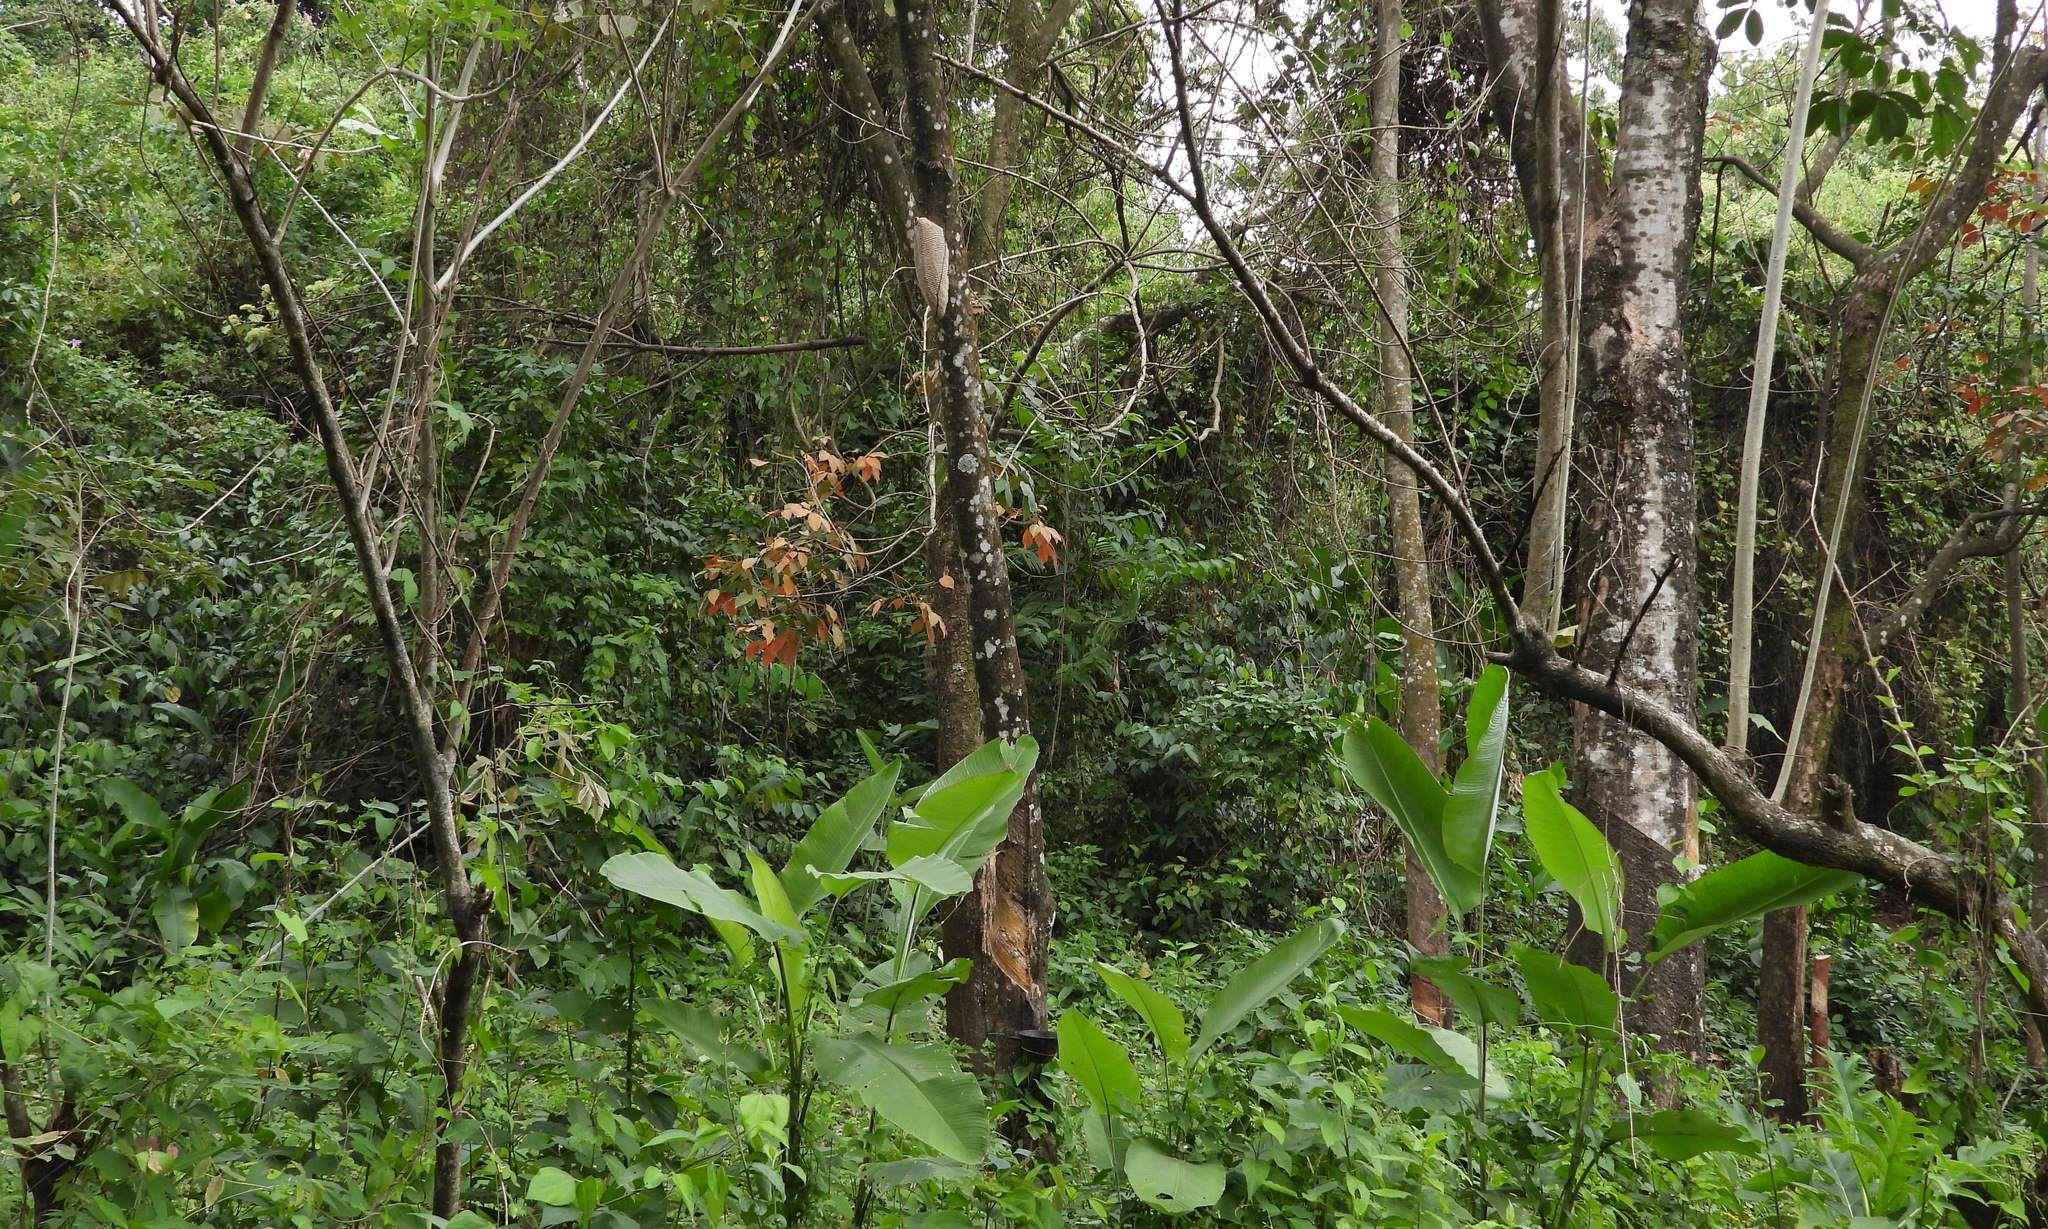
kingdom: Animalia
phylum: Arthropoda
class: Insecta
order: Hymenoptera
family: Vespidae
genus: Synoeca
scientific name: Synoeca septentrionalis
